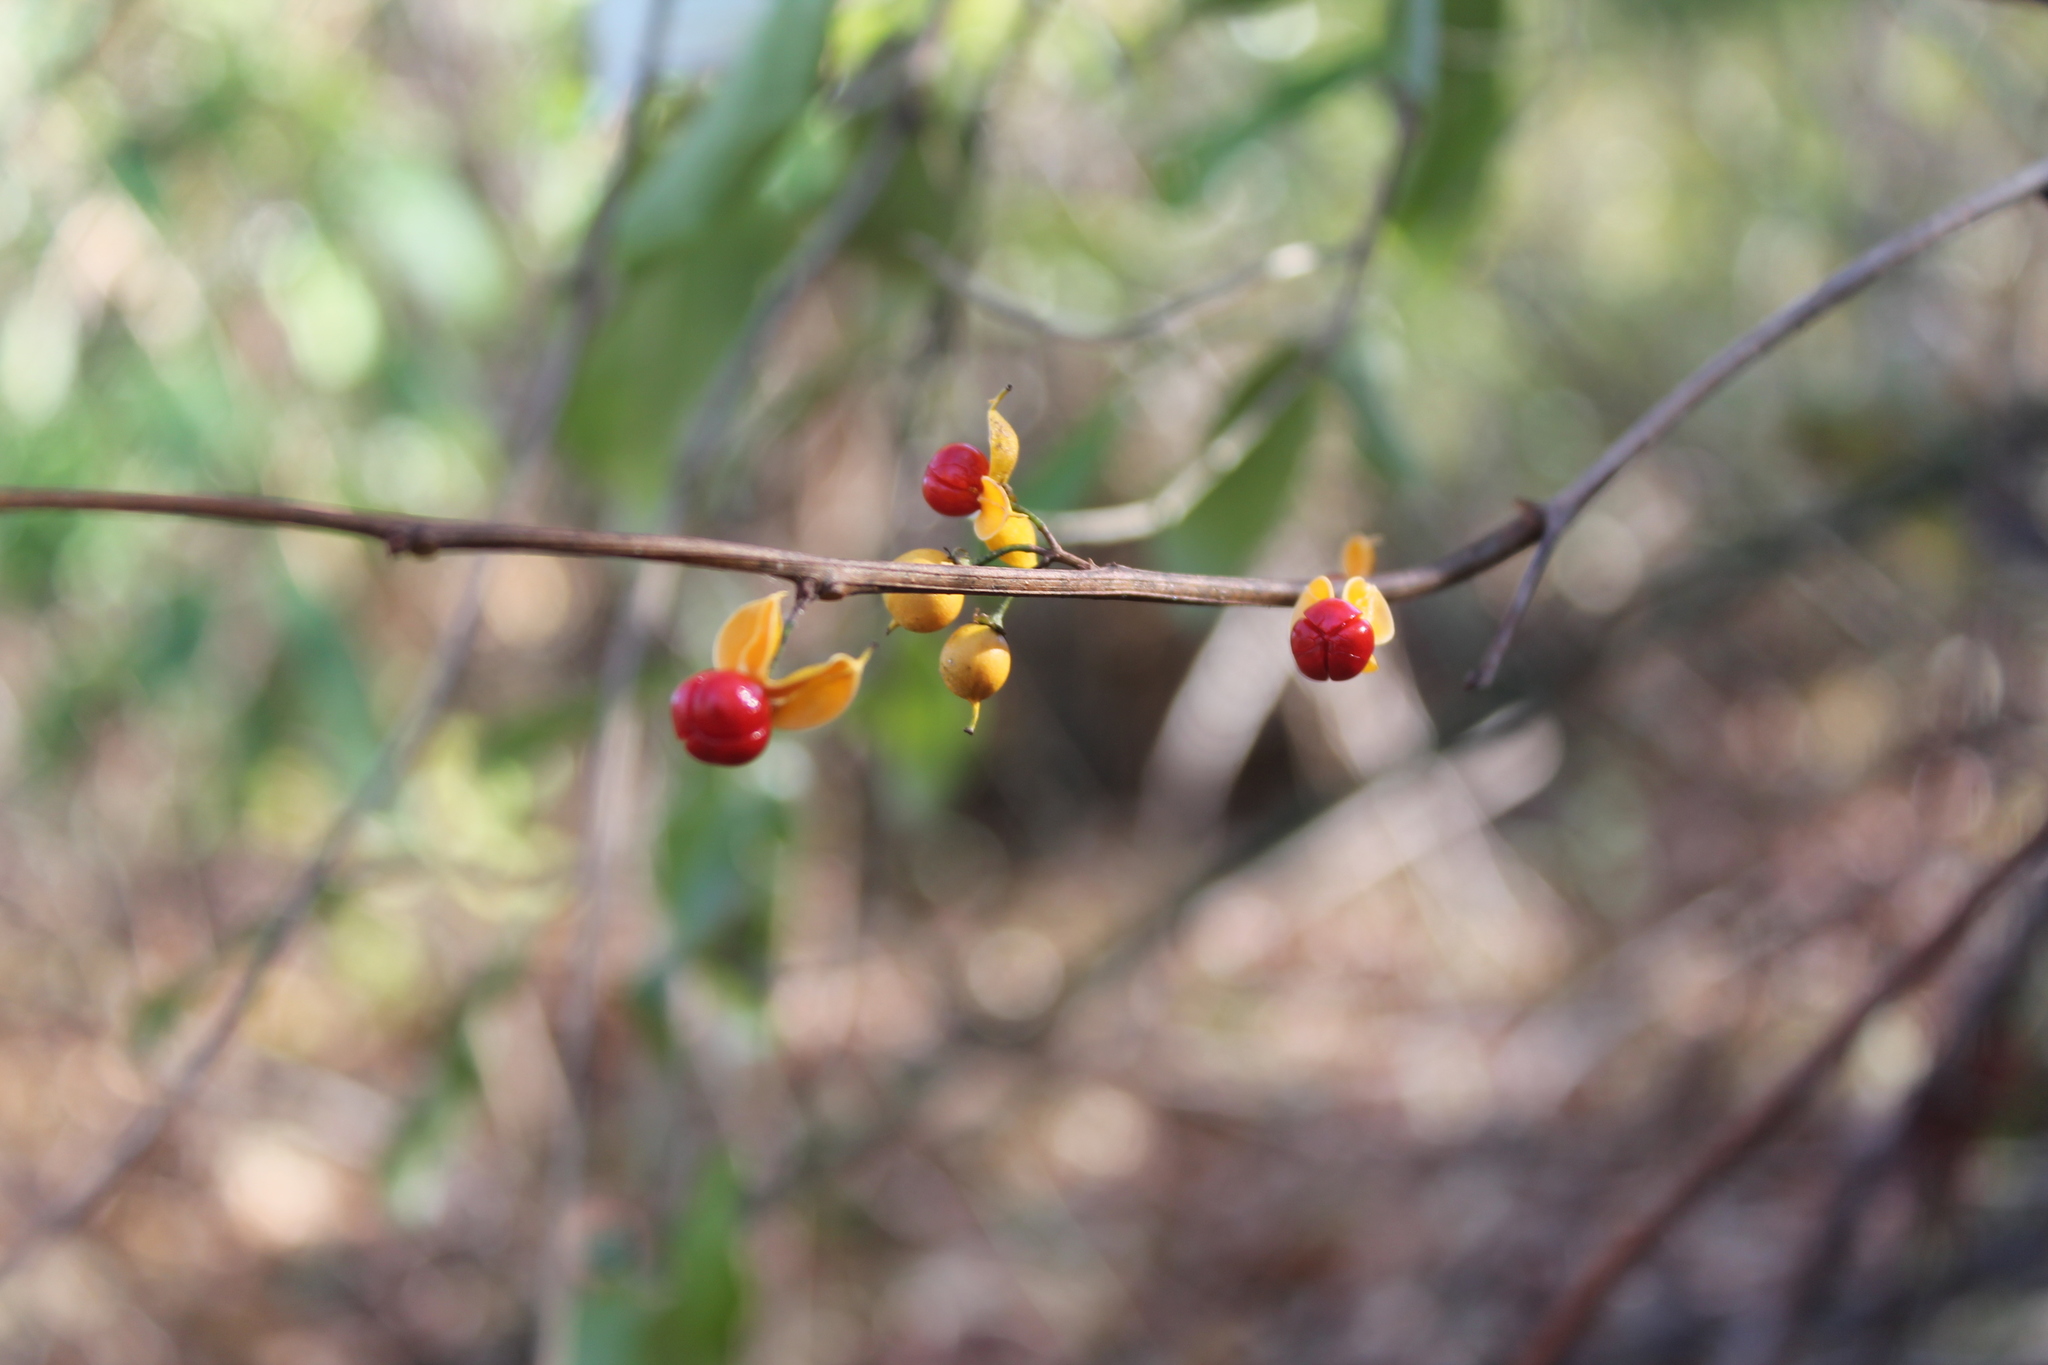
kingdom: Plantae
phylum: Tracheophyta
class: Magnoliopsida
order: Celastrales
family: Celastraceae
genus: Celastrus
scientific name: Celastrus orbiculatus
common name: Oriental bittersweet
